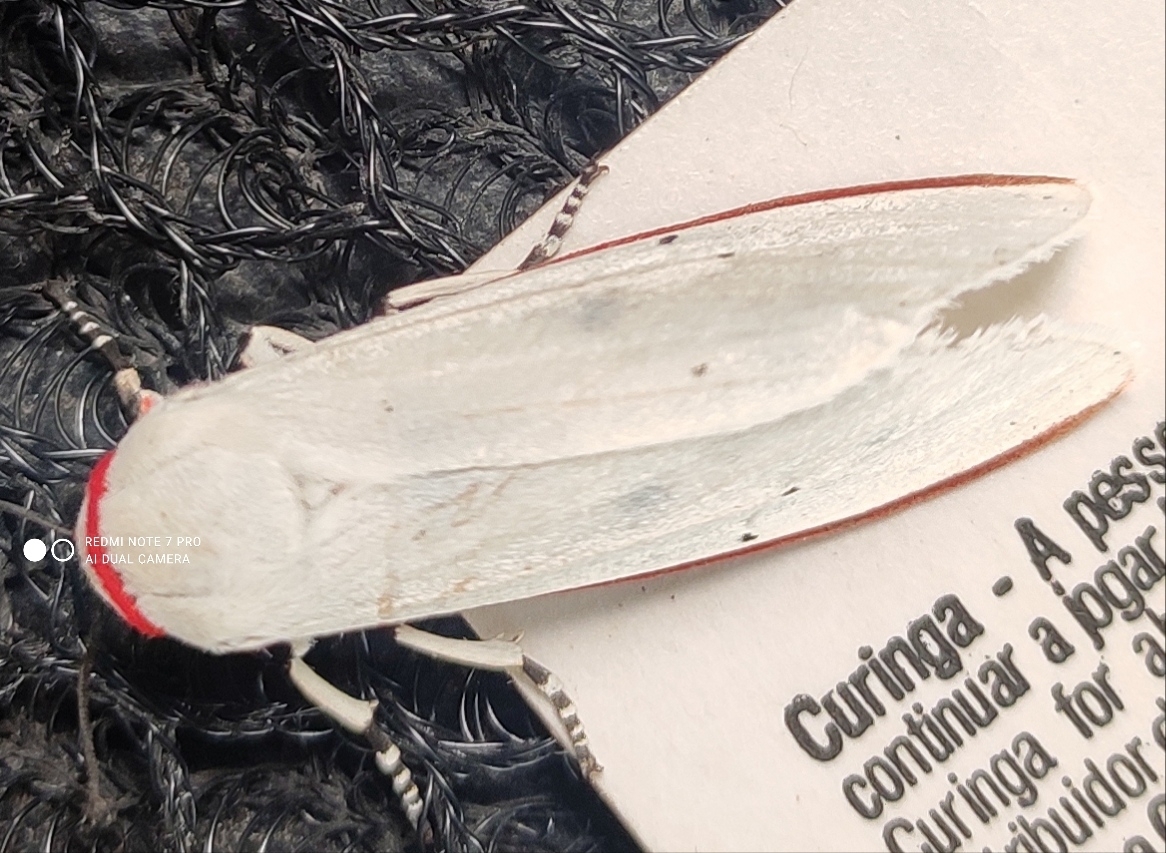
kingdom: Animalia
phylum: Arthropoda
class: Insecta
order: Lepidoptera
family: Erebidae
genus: Aloa
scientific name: Aloa lactinea
